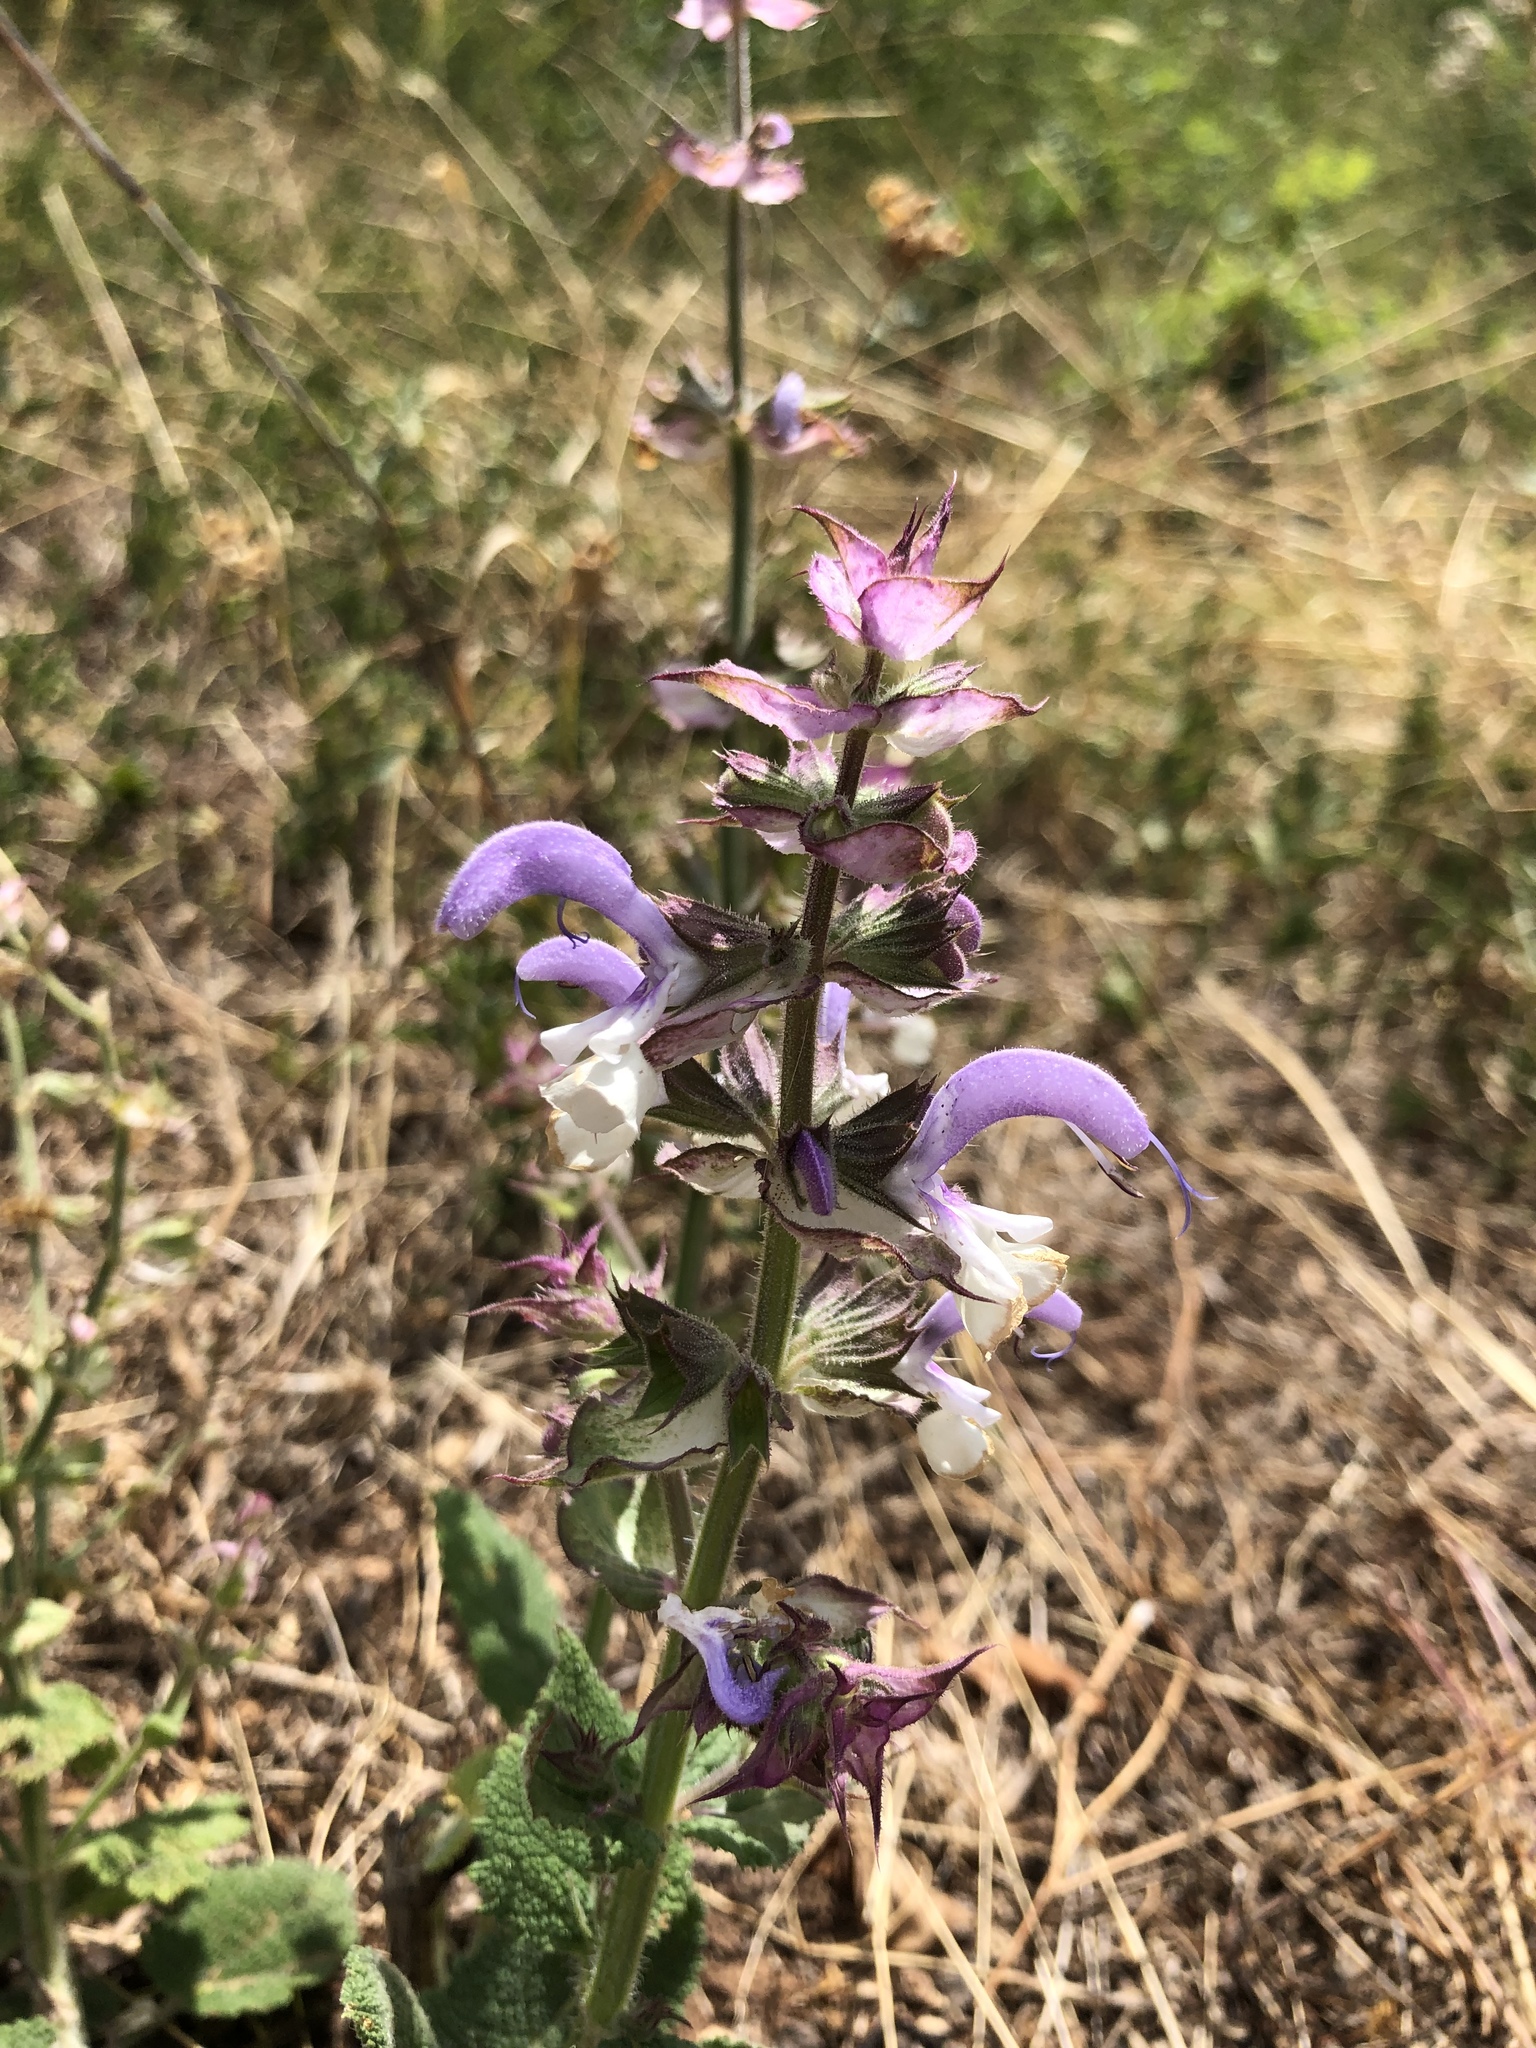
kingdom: Plantae
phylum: Tracheophyta
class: Magnoliopsida
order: Lamiales
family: Lamiaceae
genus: Salvia
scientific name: Salvia sclarea
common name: Clary
